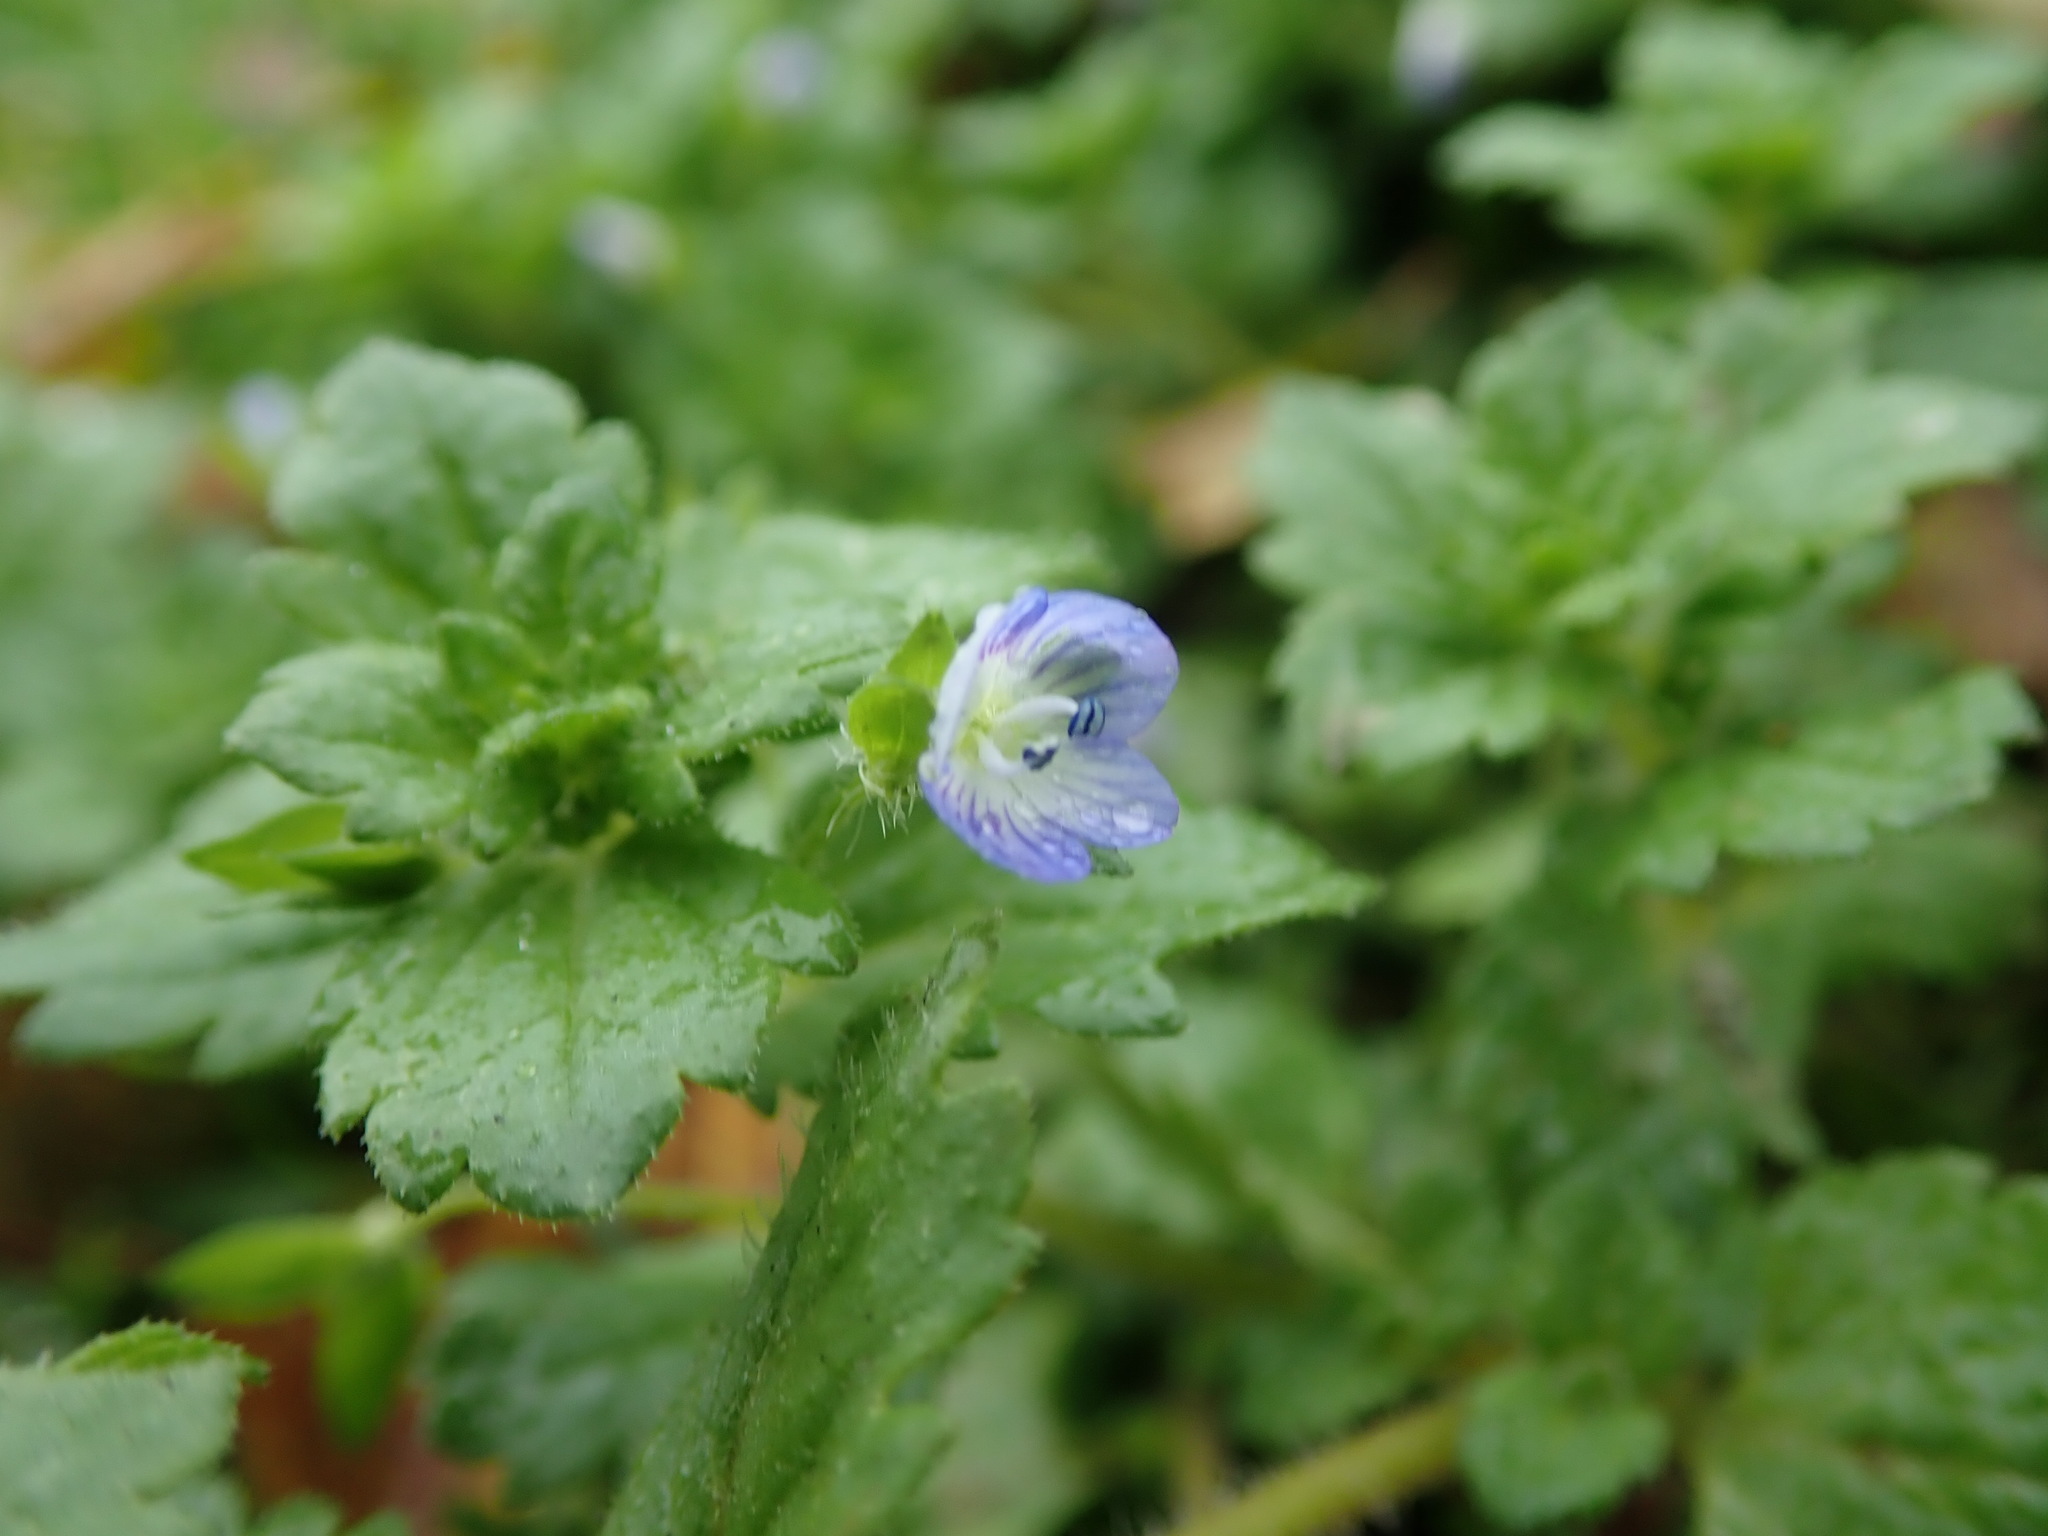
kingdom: Plantae
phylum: Tracheophyta
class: Magnoliopsida
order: Lamiales
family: Plantaginaceae
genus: Veronica
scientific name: Veronica persica
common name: Common field-speedwell
